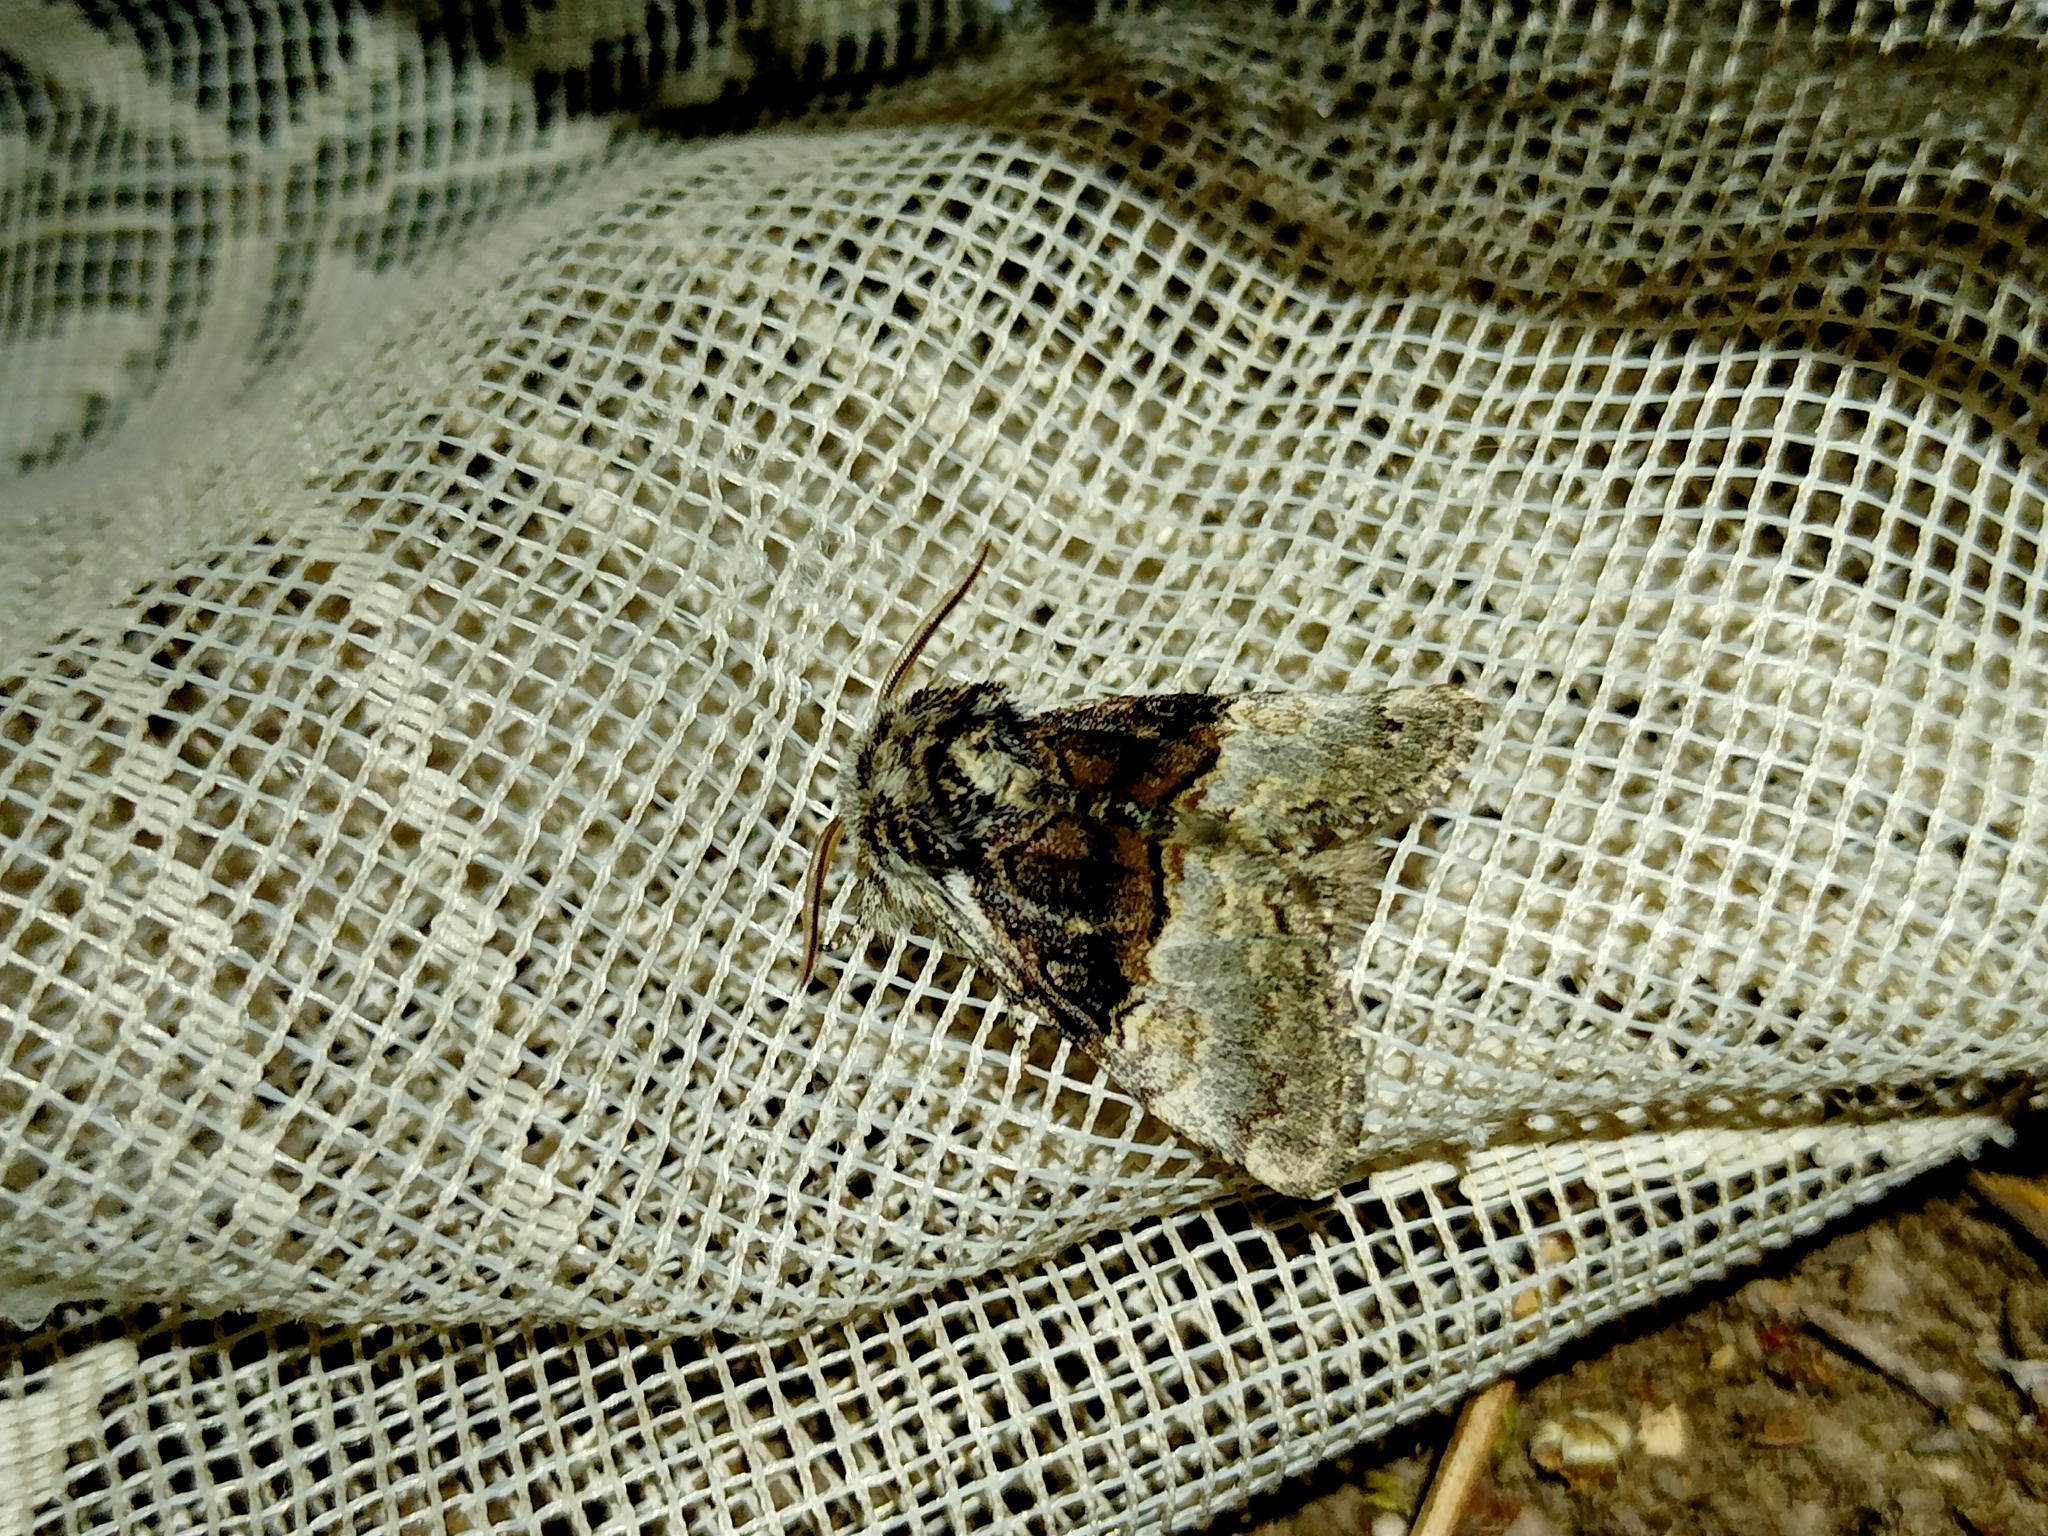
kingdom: Animalia
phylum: Arthropoda
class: Insecta
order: Lepidoptera
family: Noctuidae
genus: Colocasia
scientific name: Colocasia coryli
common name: Nut-tree tussock
